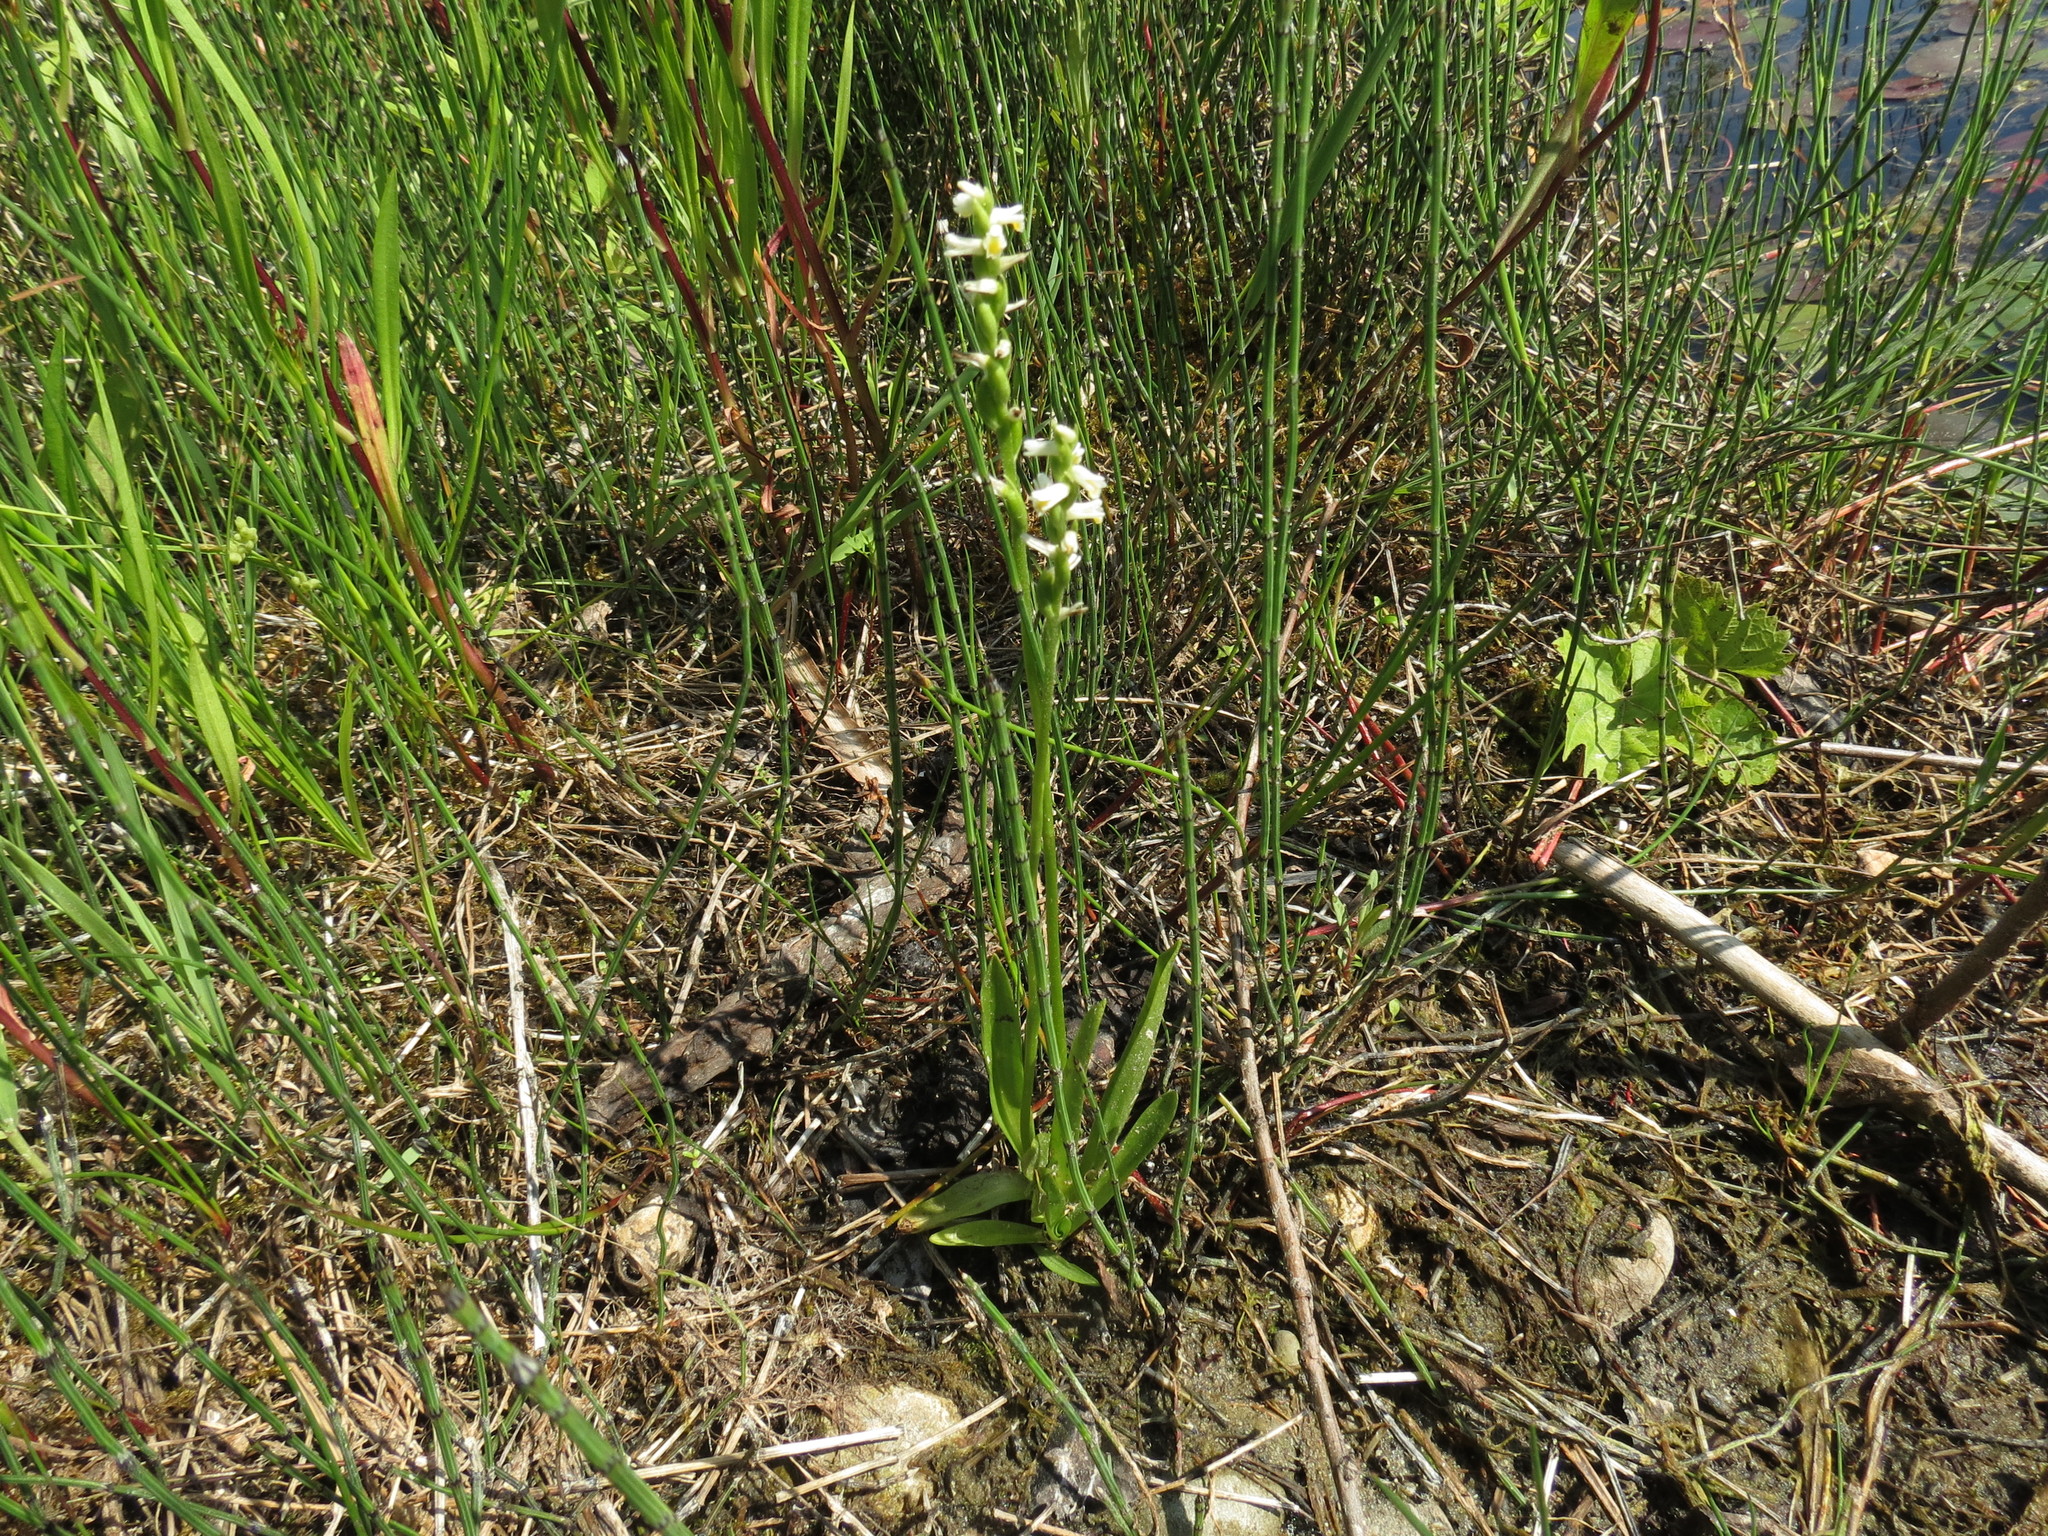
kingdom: Plantae
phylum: Tracheophyta
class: Liliopsida
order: Asparagales
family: Orchidaceae
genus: Spiranthes
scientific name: Spiranthes lucida
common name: Broad-leaved ladies'-tresses
